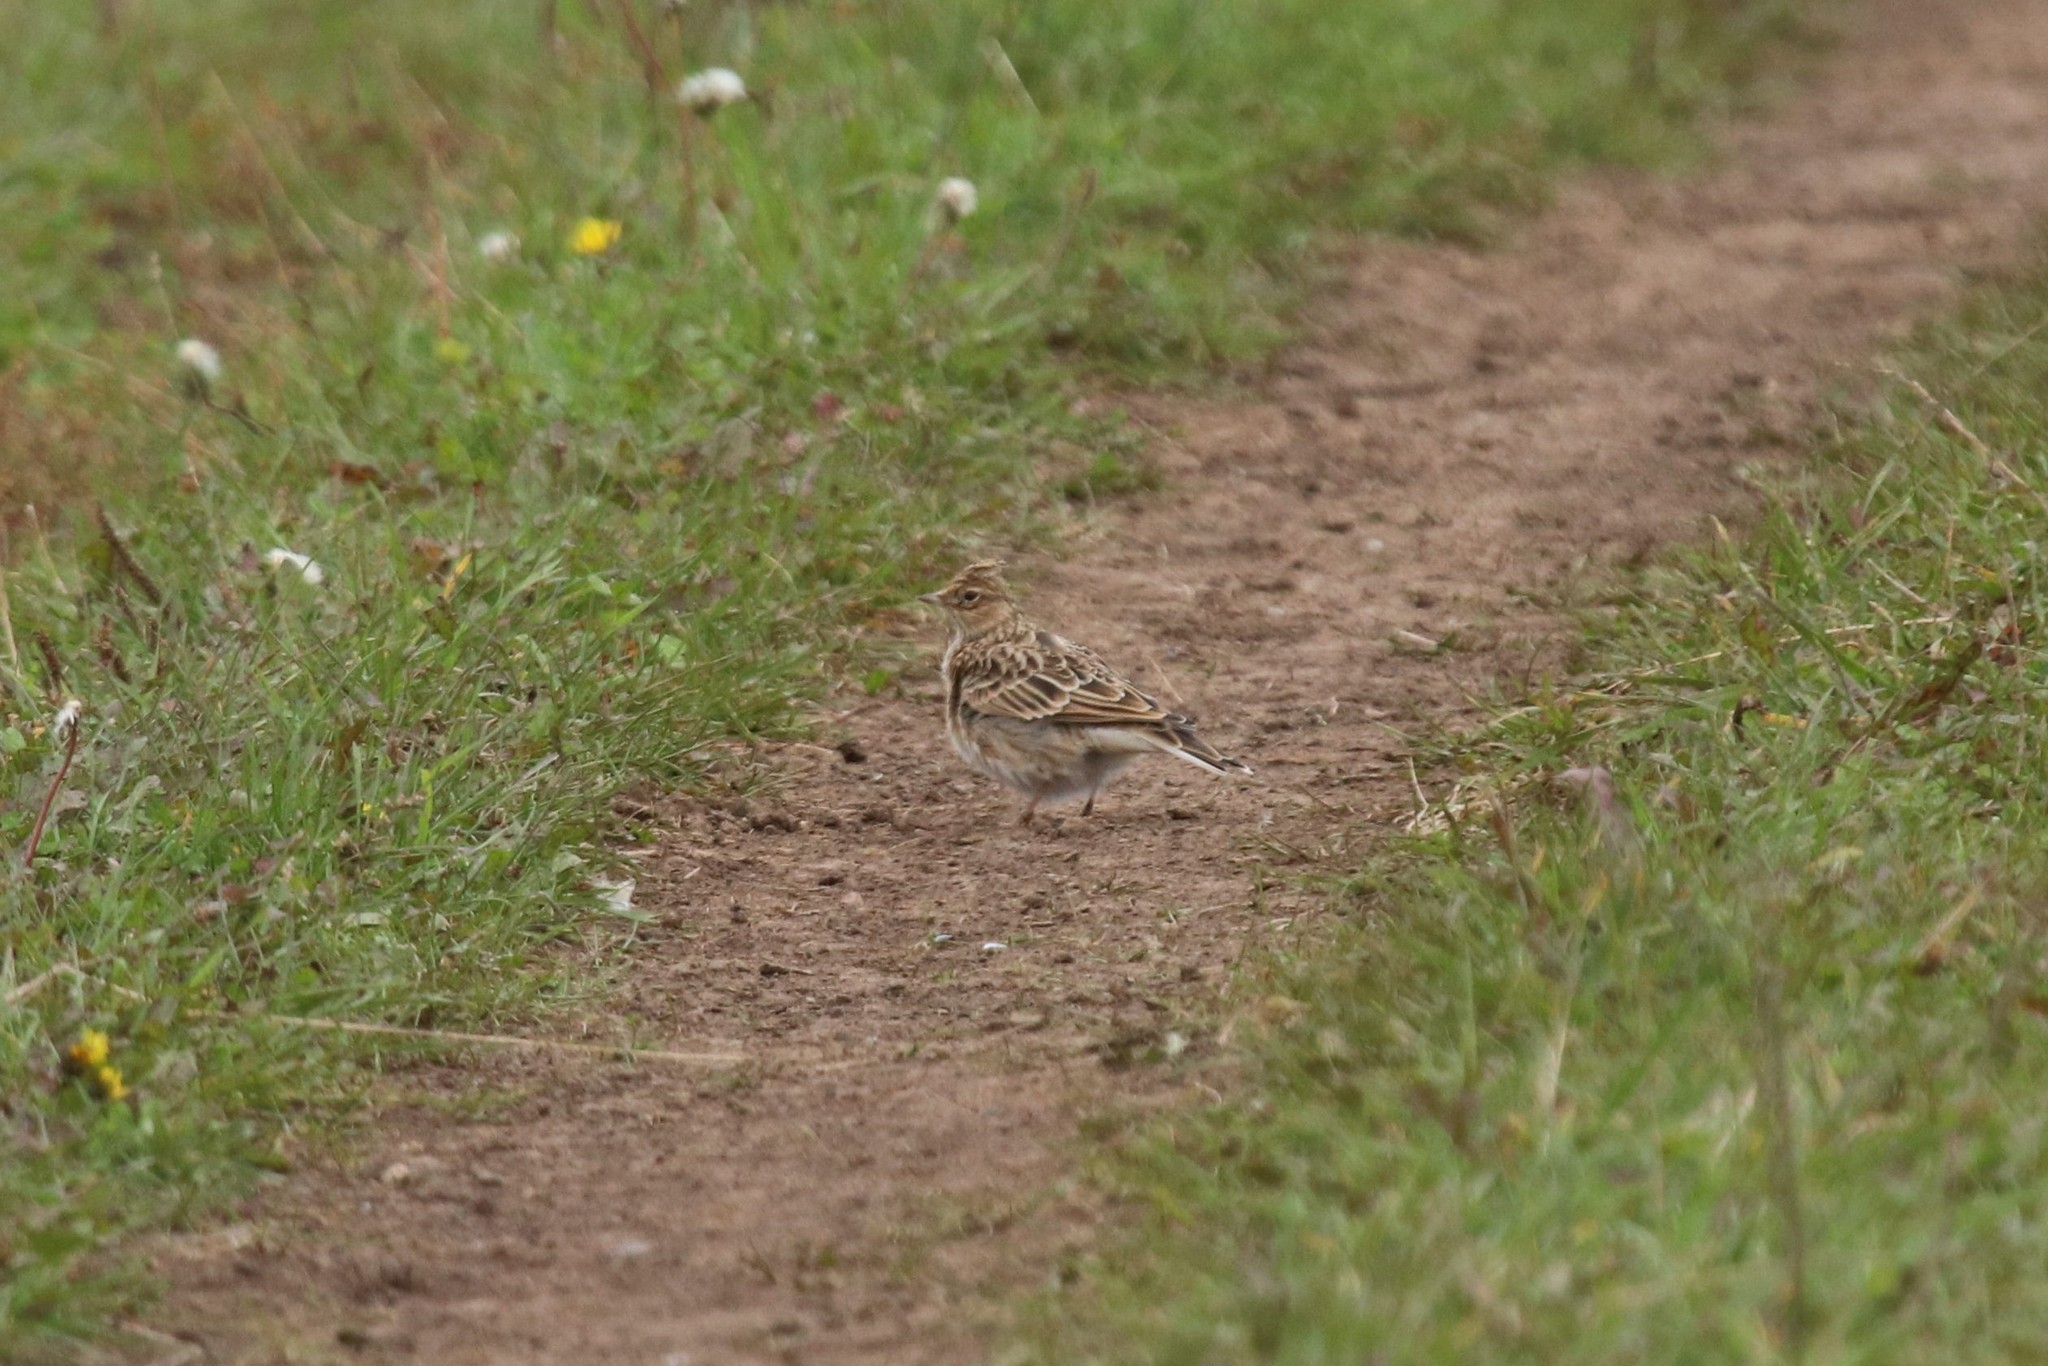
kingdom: Animalia
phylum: Chordata
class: Aves
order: Passeriformes
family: Alaudidae
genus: Alauda
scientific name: Alauda arvensis
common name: Eurasian skylark
